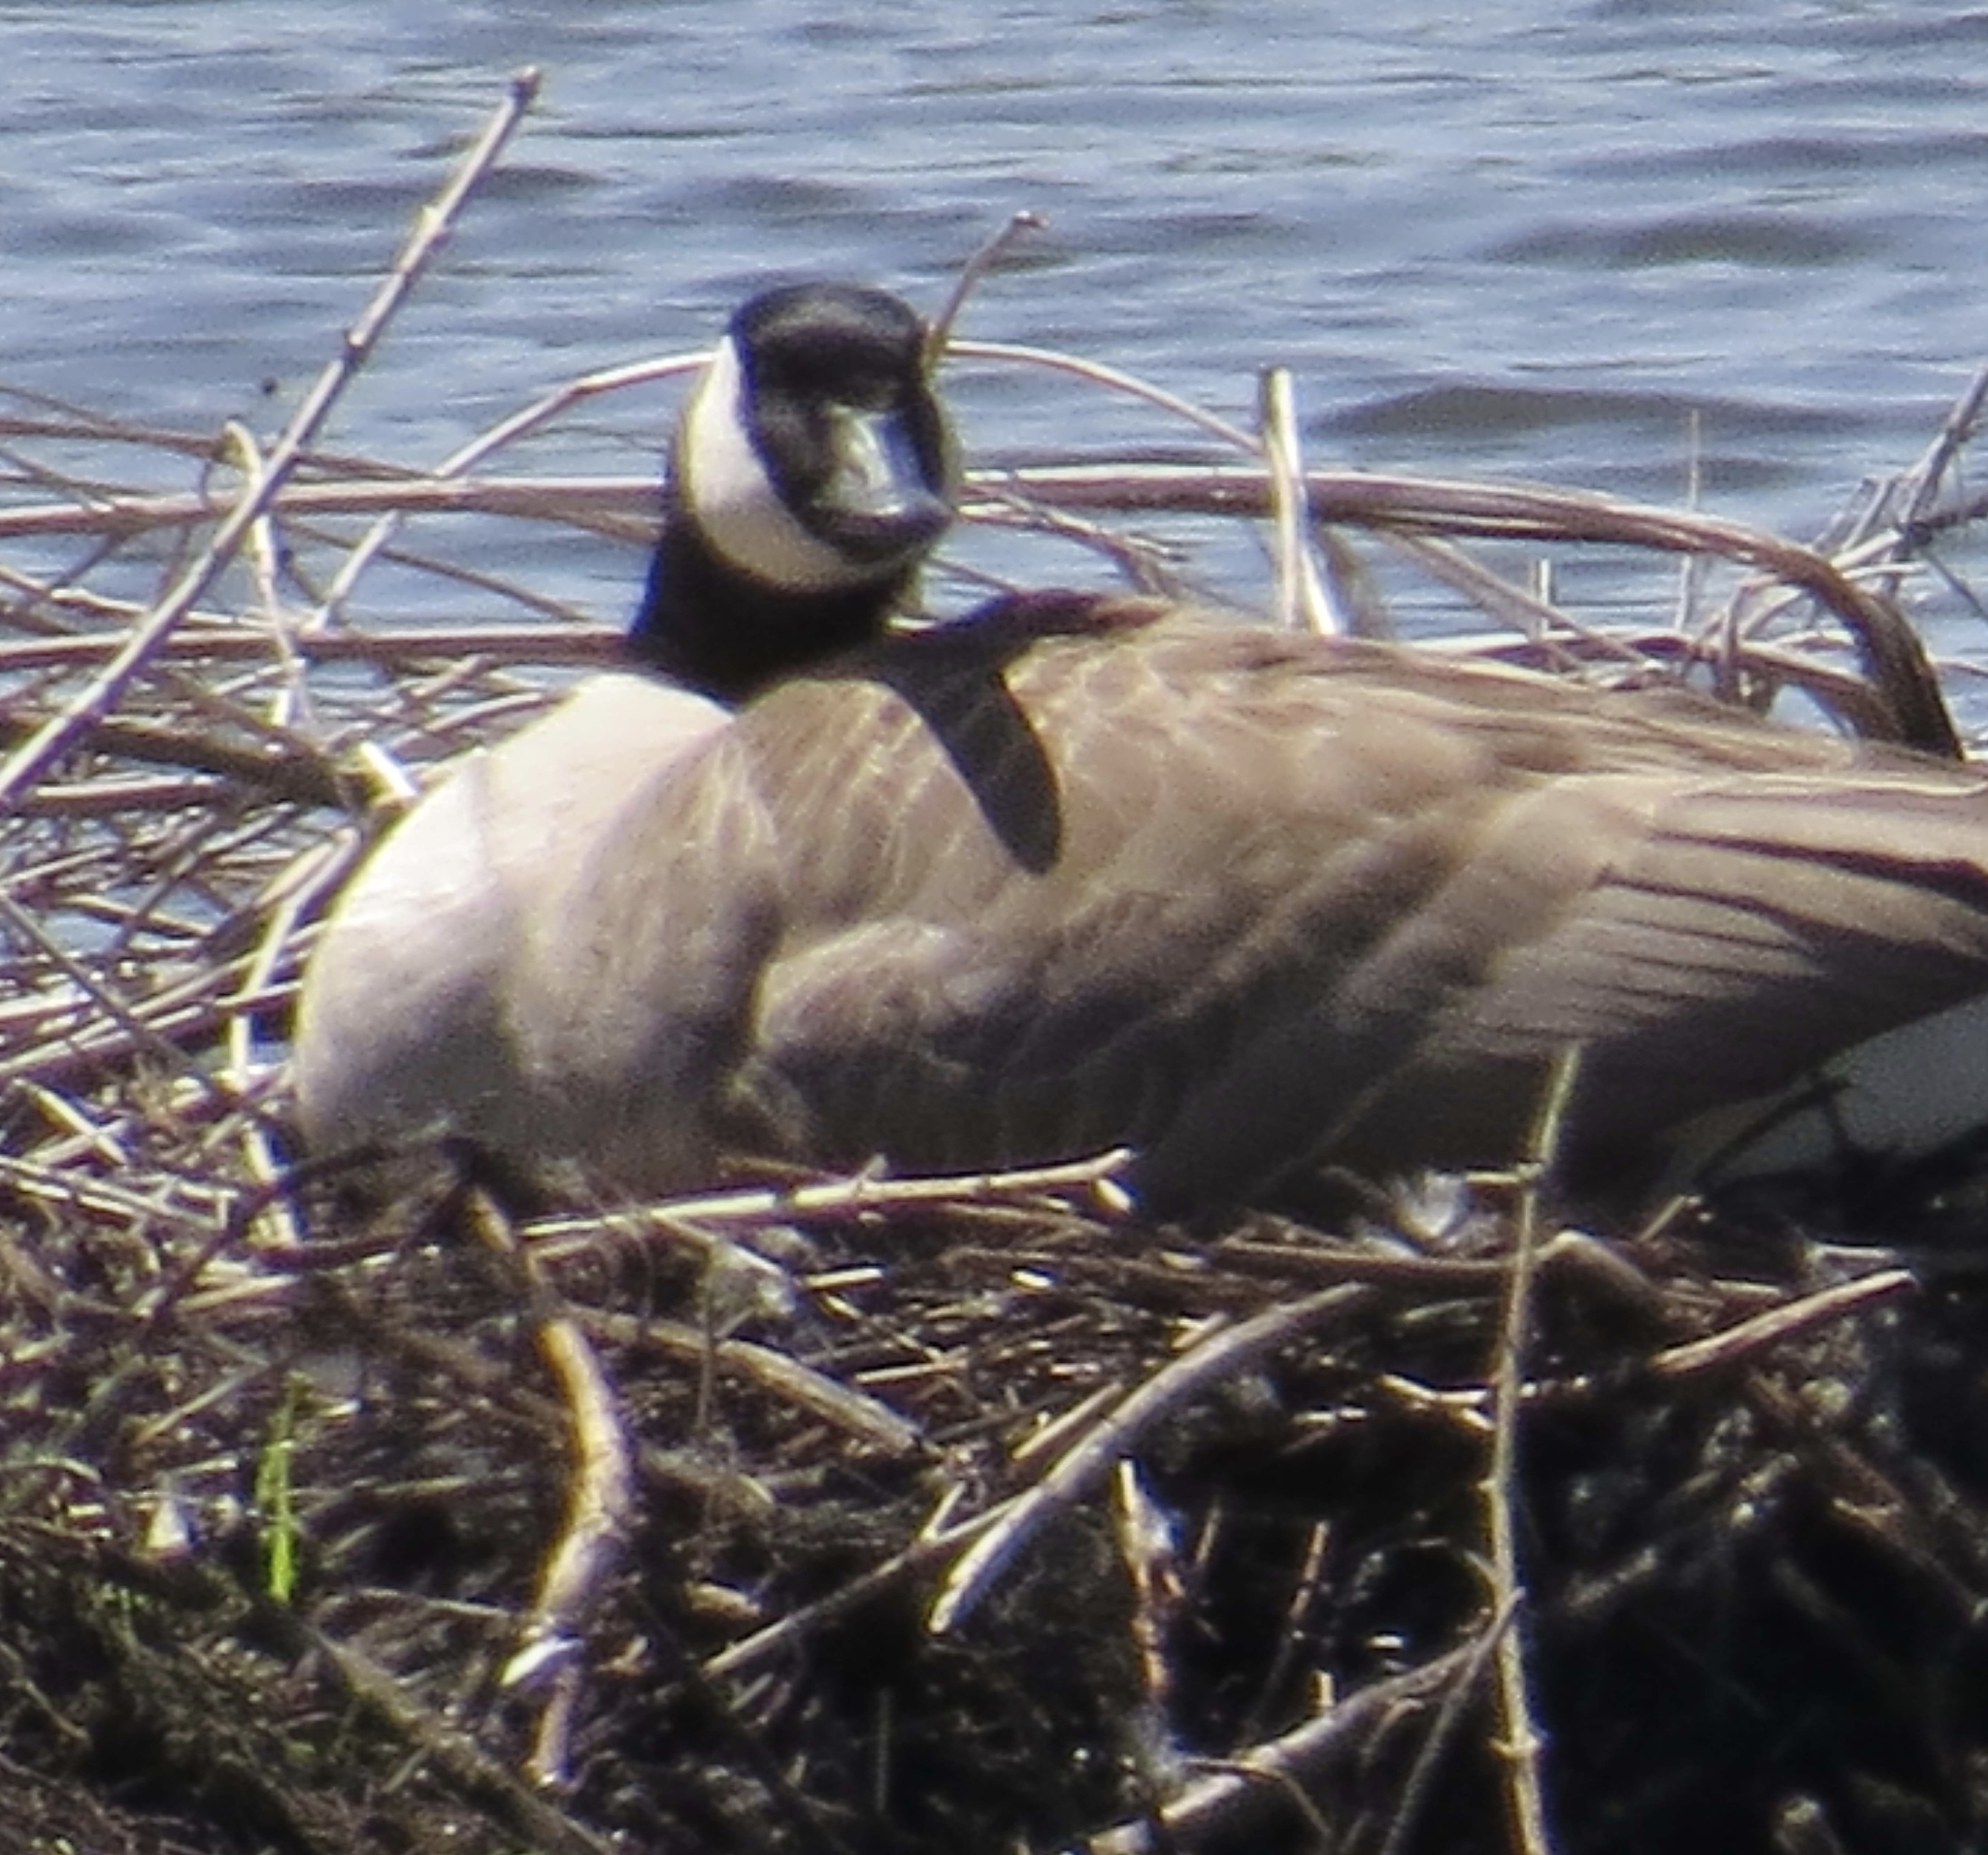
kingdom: Animalia
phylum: Chordata
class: Aves
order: Anseriformes
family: Anatidae
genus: Branta
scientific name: Branta canadensis
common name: Canada goose
